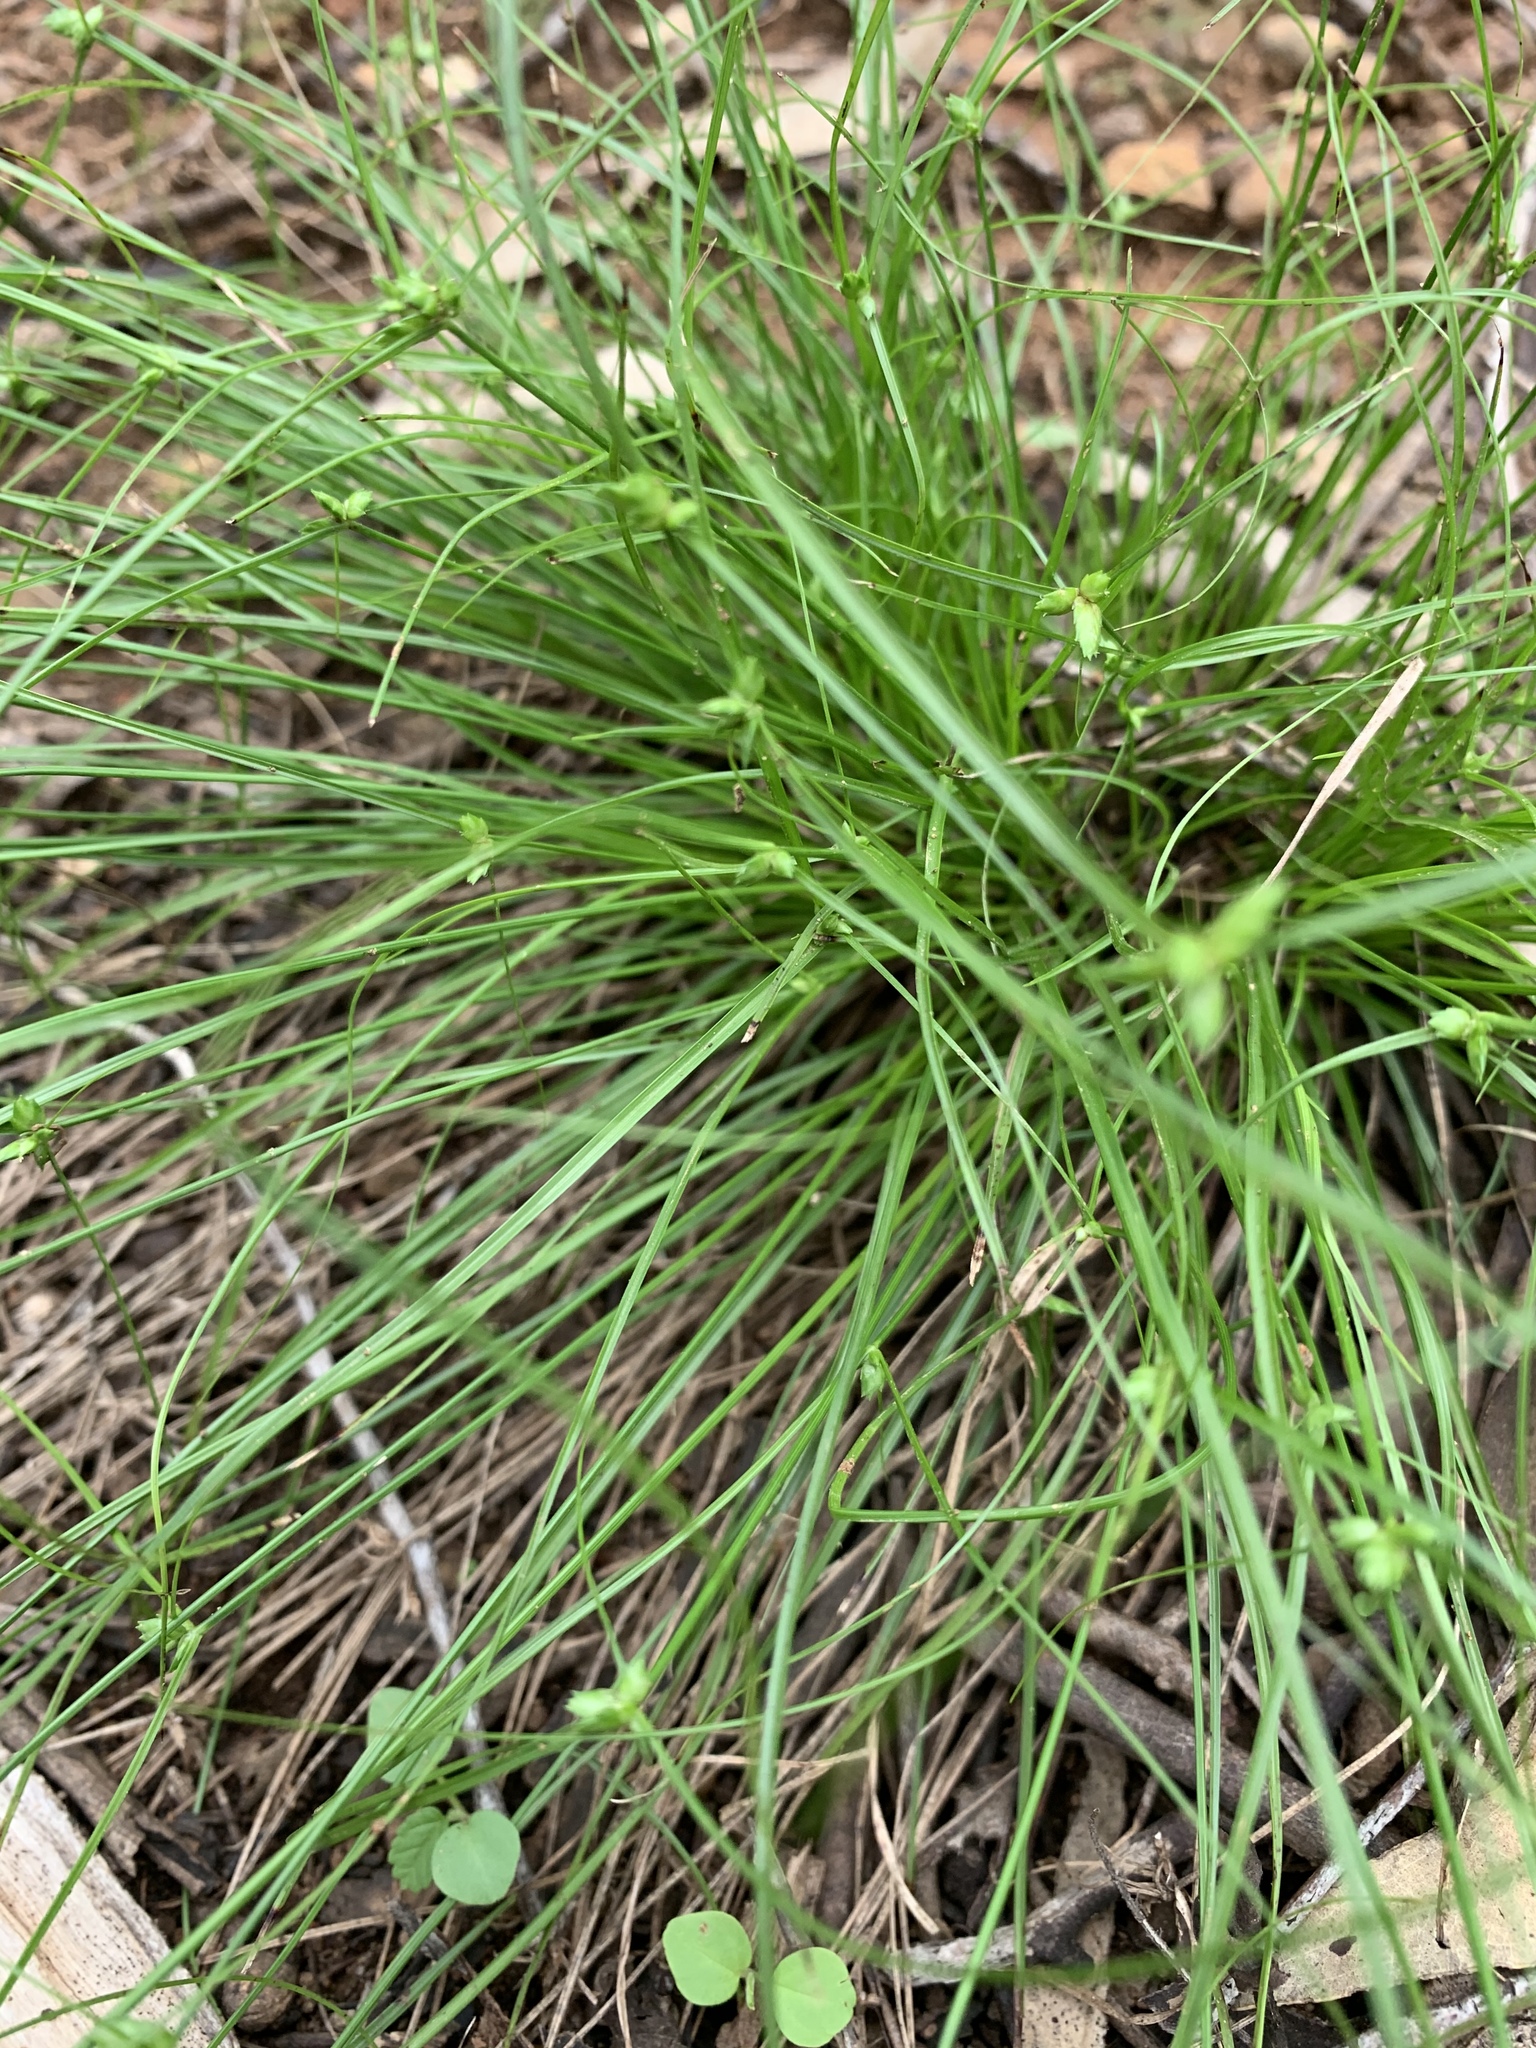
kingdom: Plantae
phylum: Tracheophyta
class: Liliopsida
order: Poales
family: Cyperaceae
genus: Cyperus
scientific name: Cyperus gracilis
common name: Slimjim flatsedge
